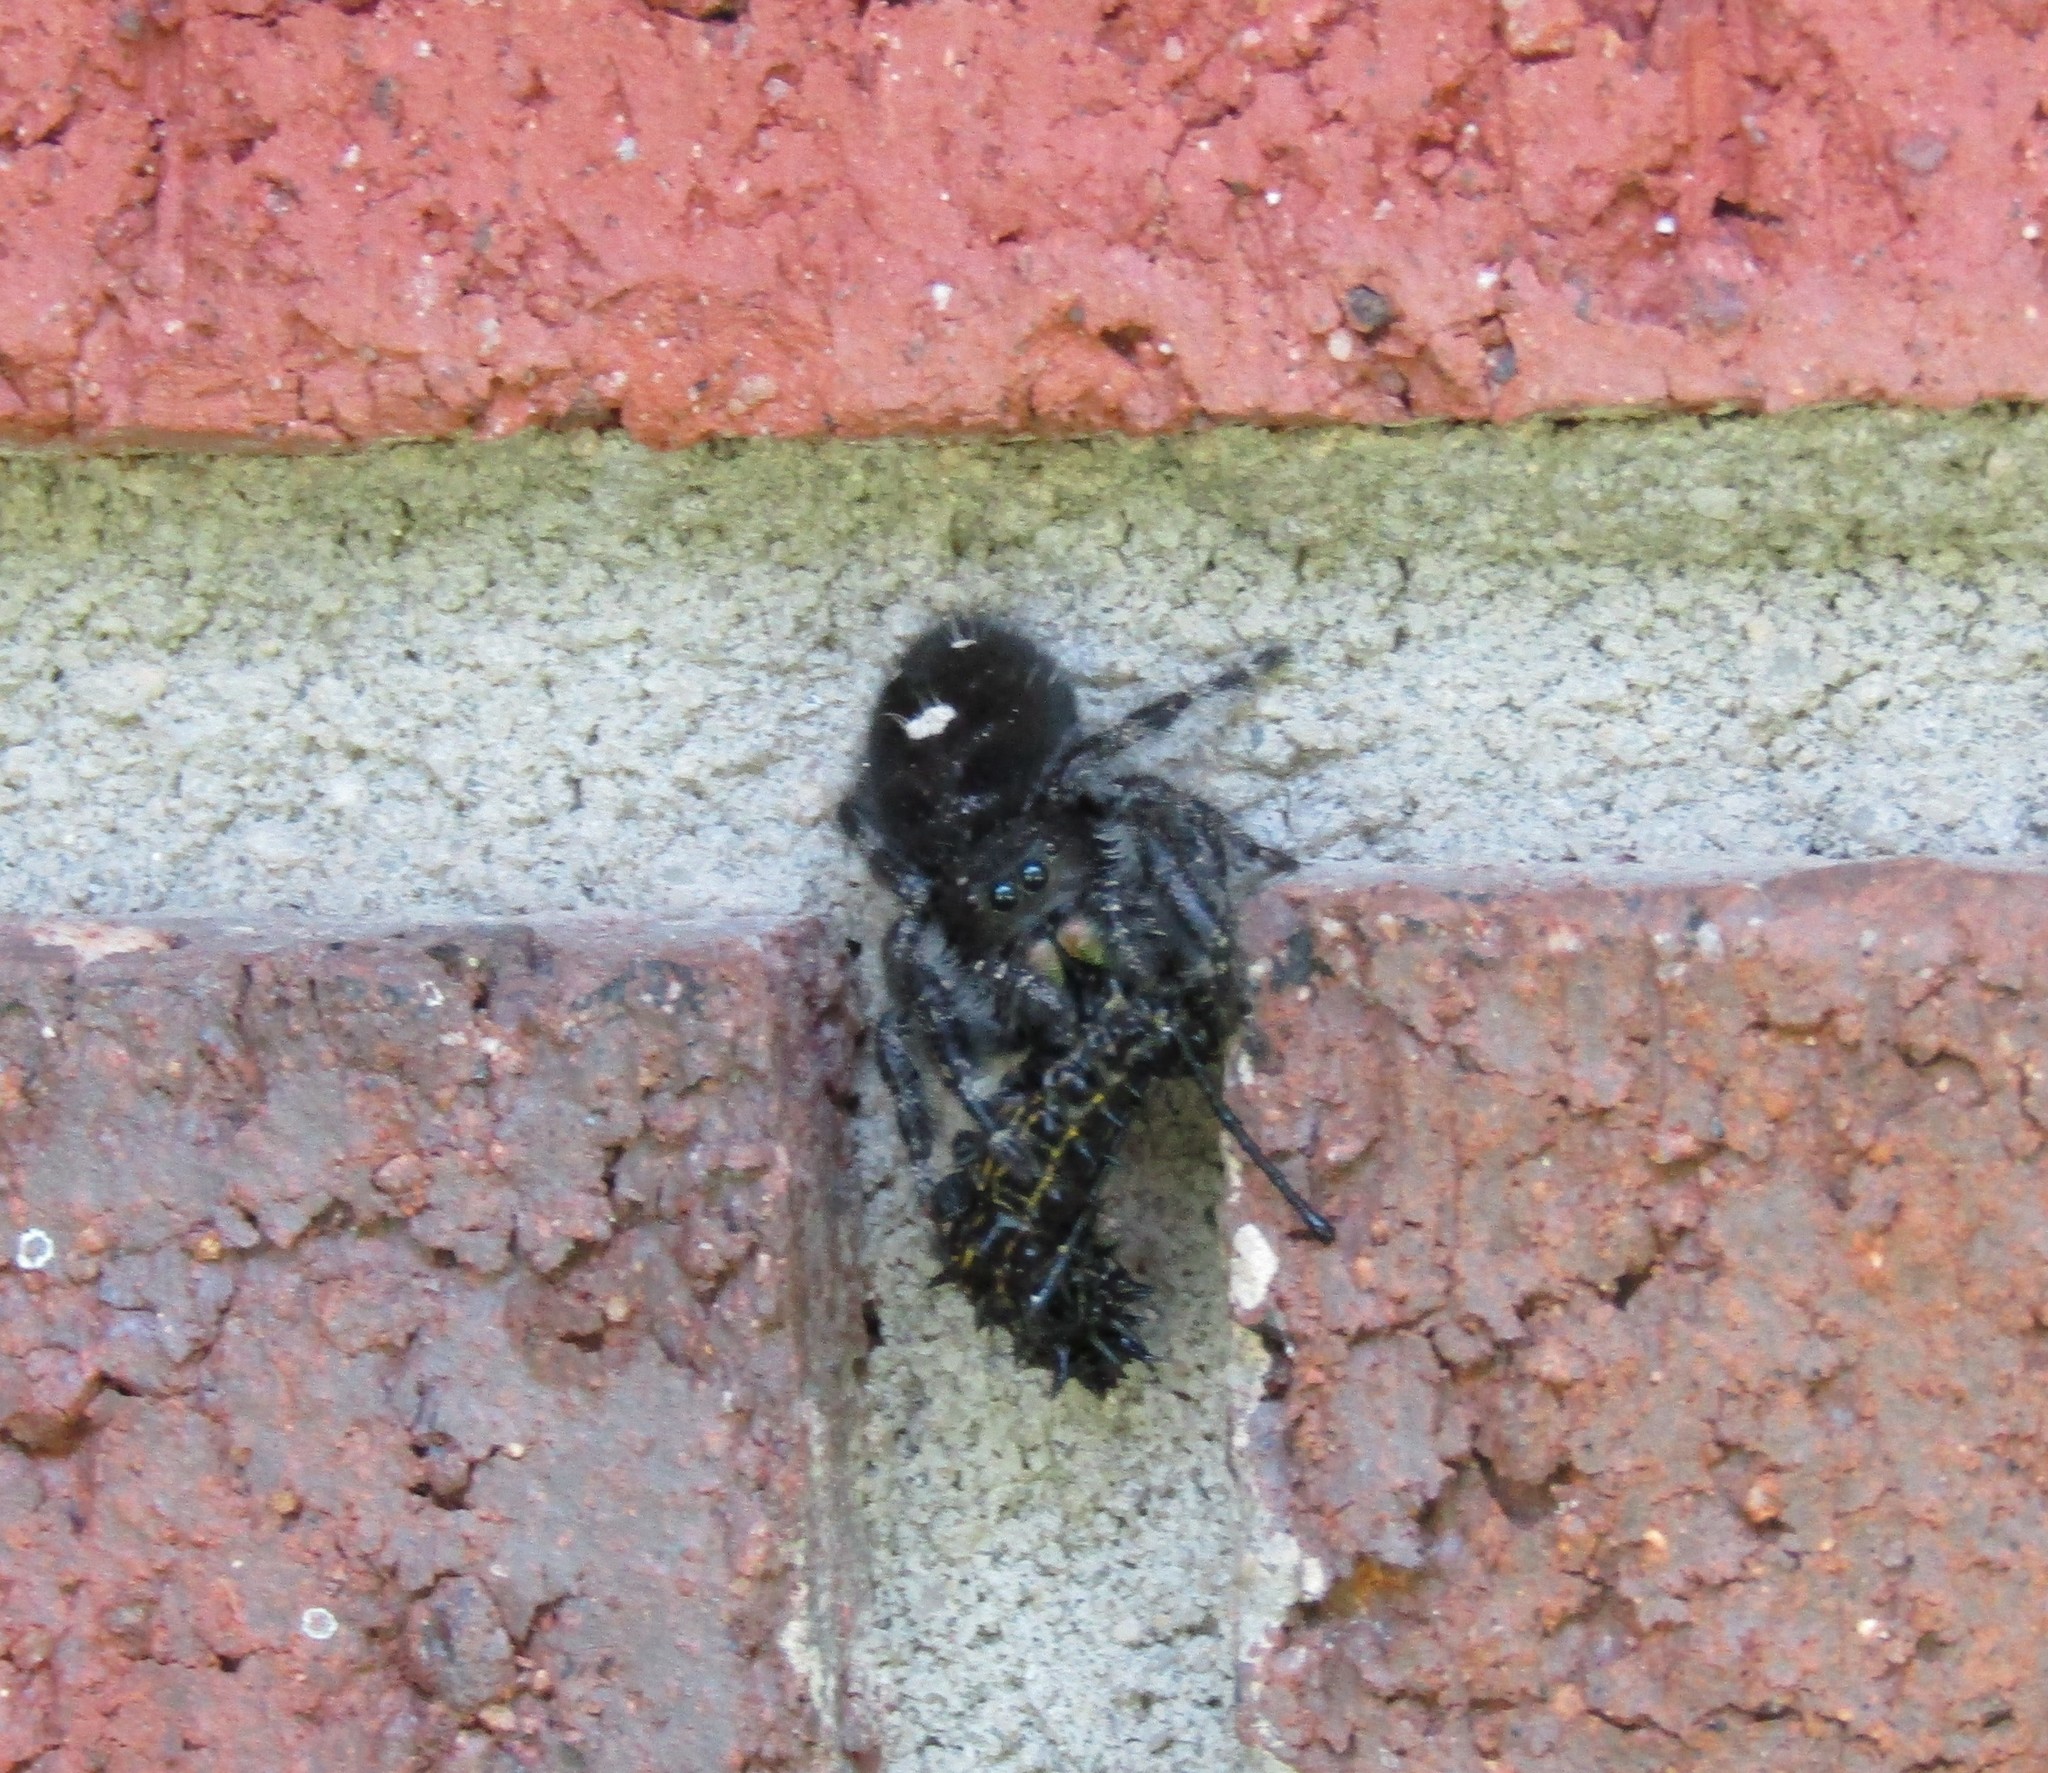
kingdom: Animalia
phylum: Arthropoda
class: Arachnida
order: Araneae
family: Salticidae
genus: Phidippus
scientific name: Phidippus audax
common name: Bold jumper
